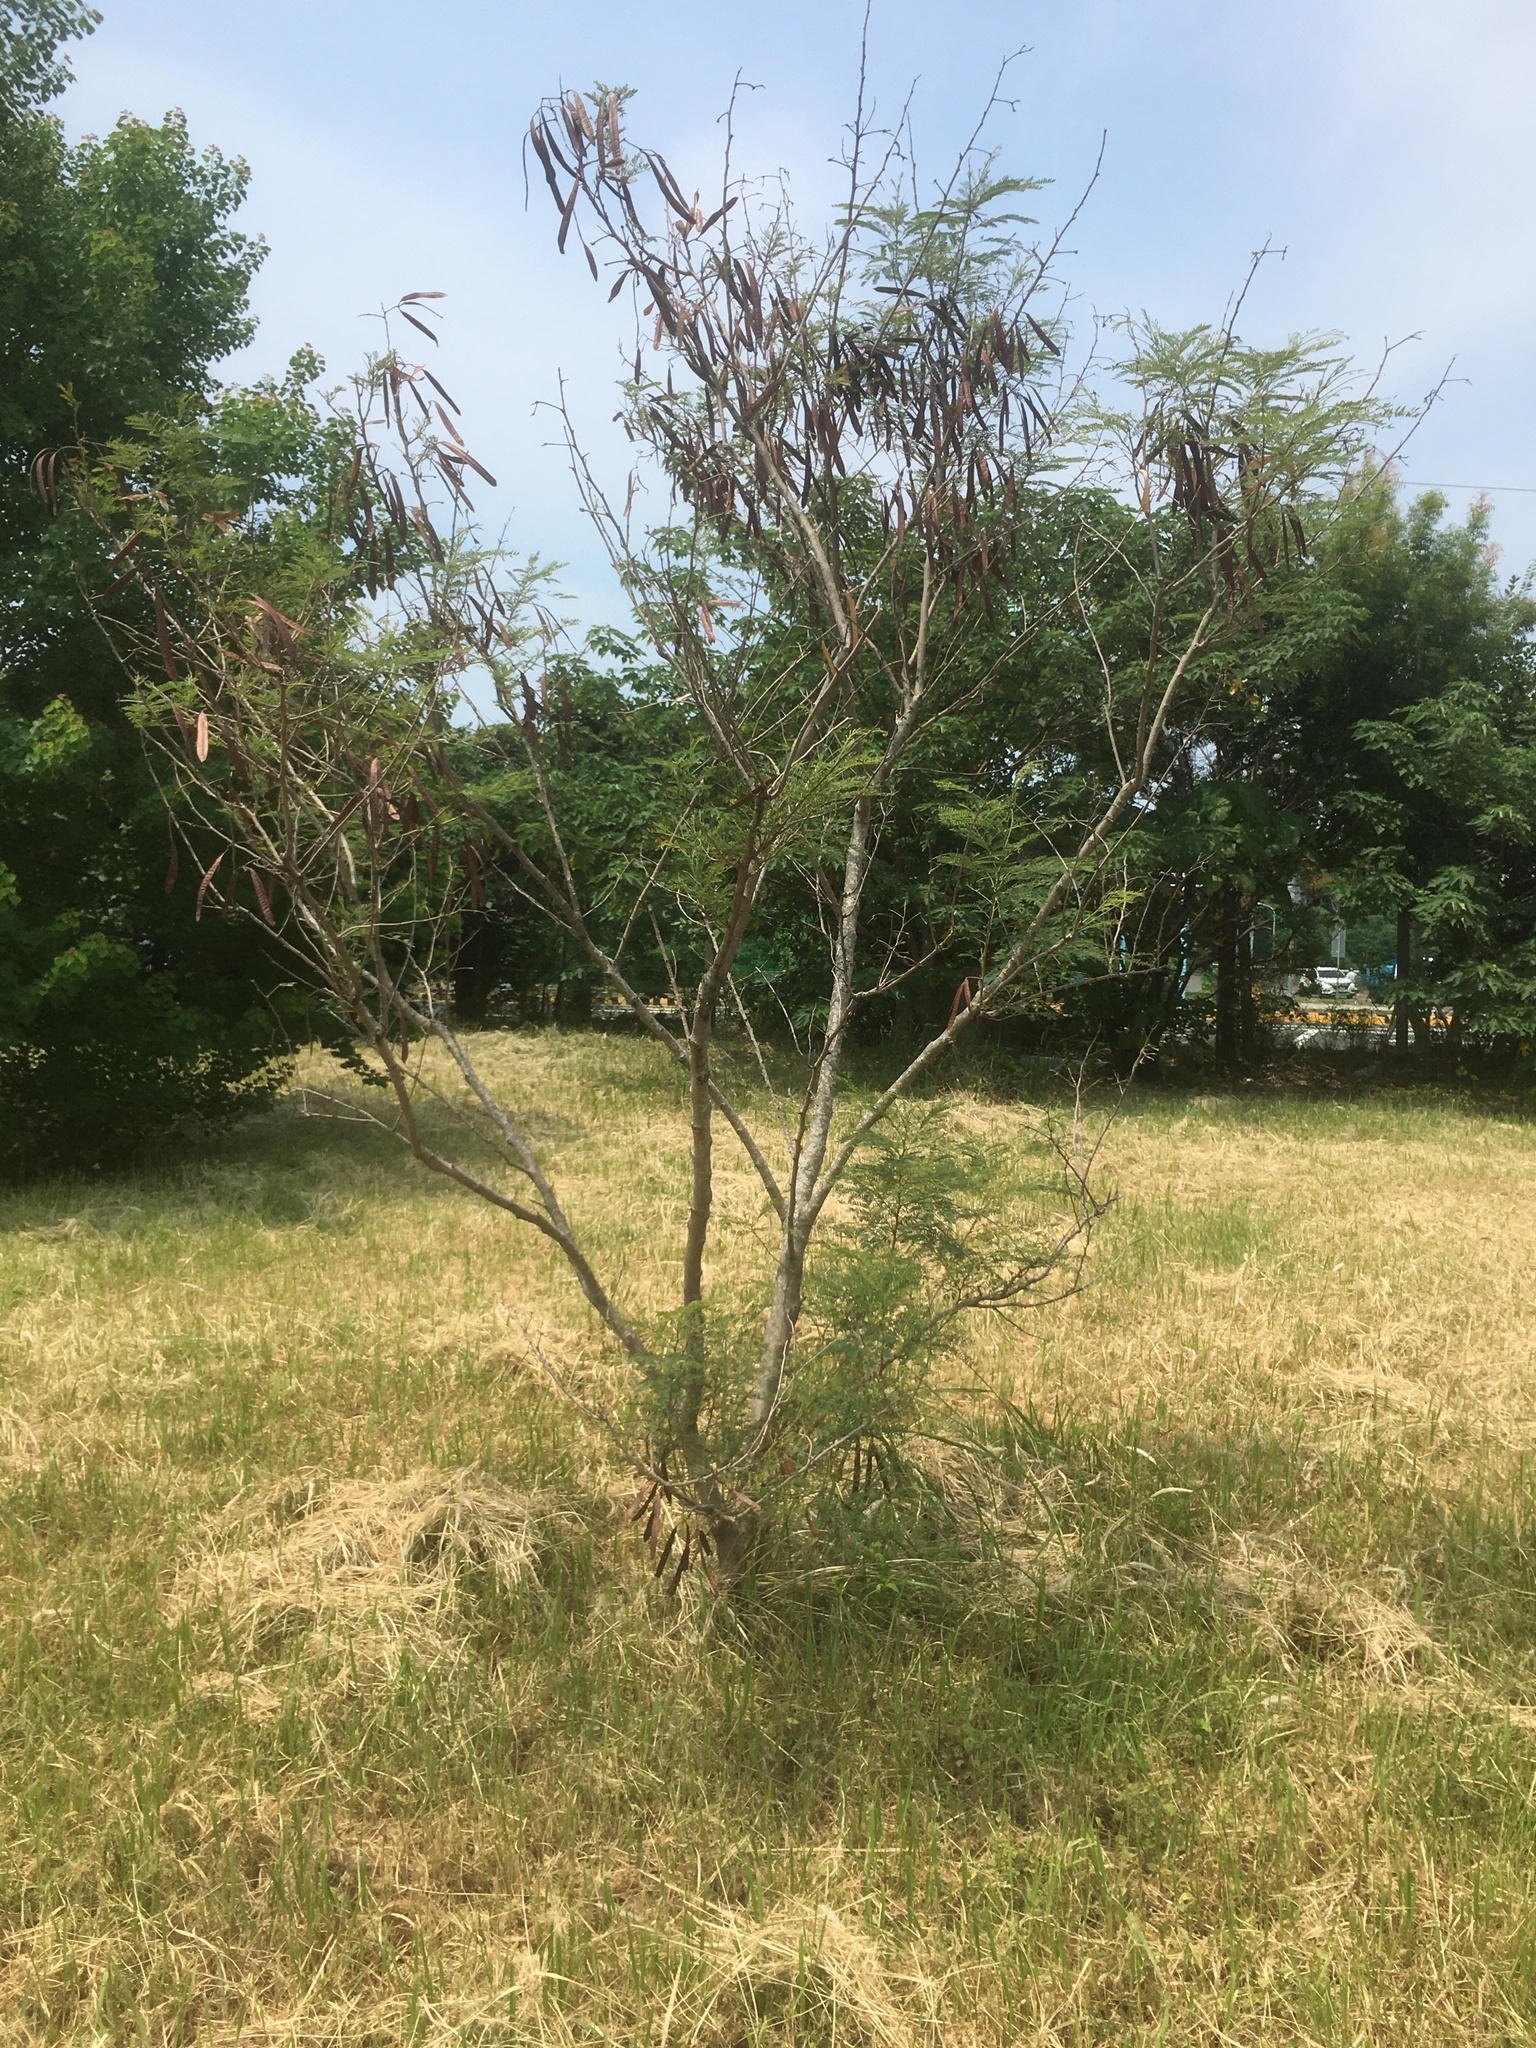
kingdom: Plantae
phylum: Tracheophyta
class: Magnoliopsida
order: Fabales
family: Fabaceae
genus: Leucaena
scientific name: Leucaena leucocephala
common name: White leadtree
